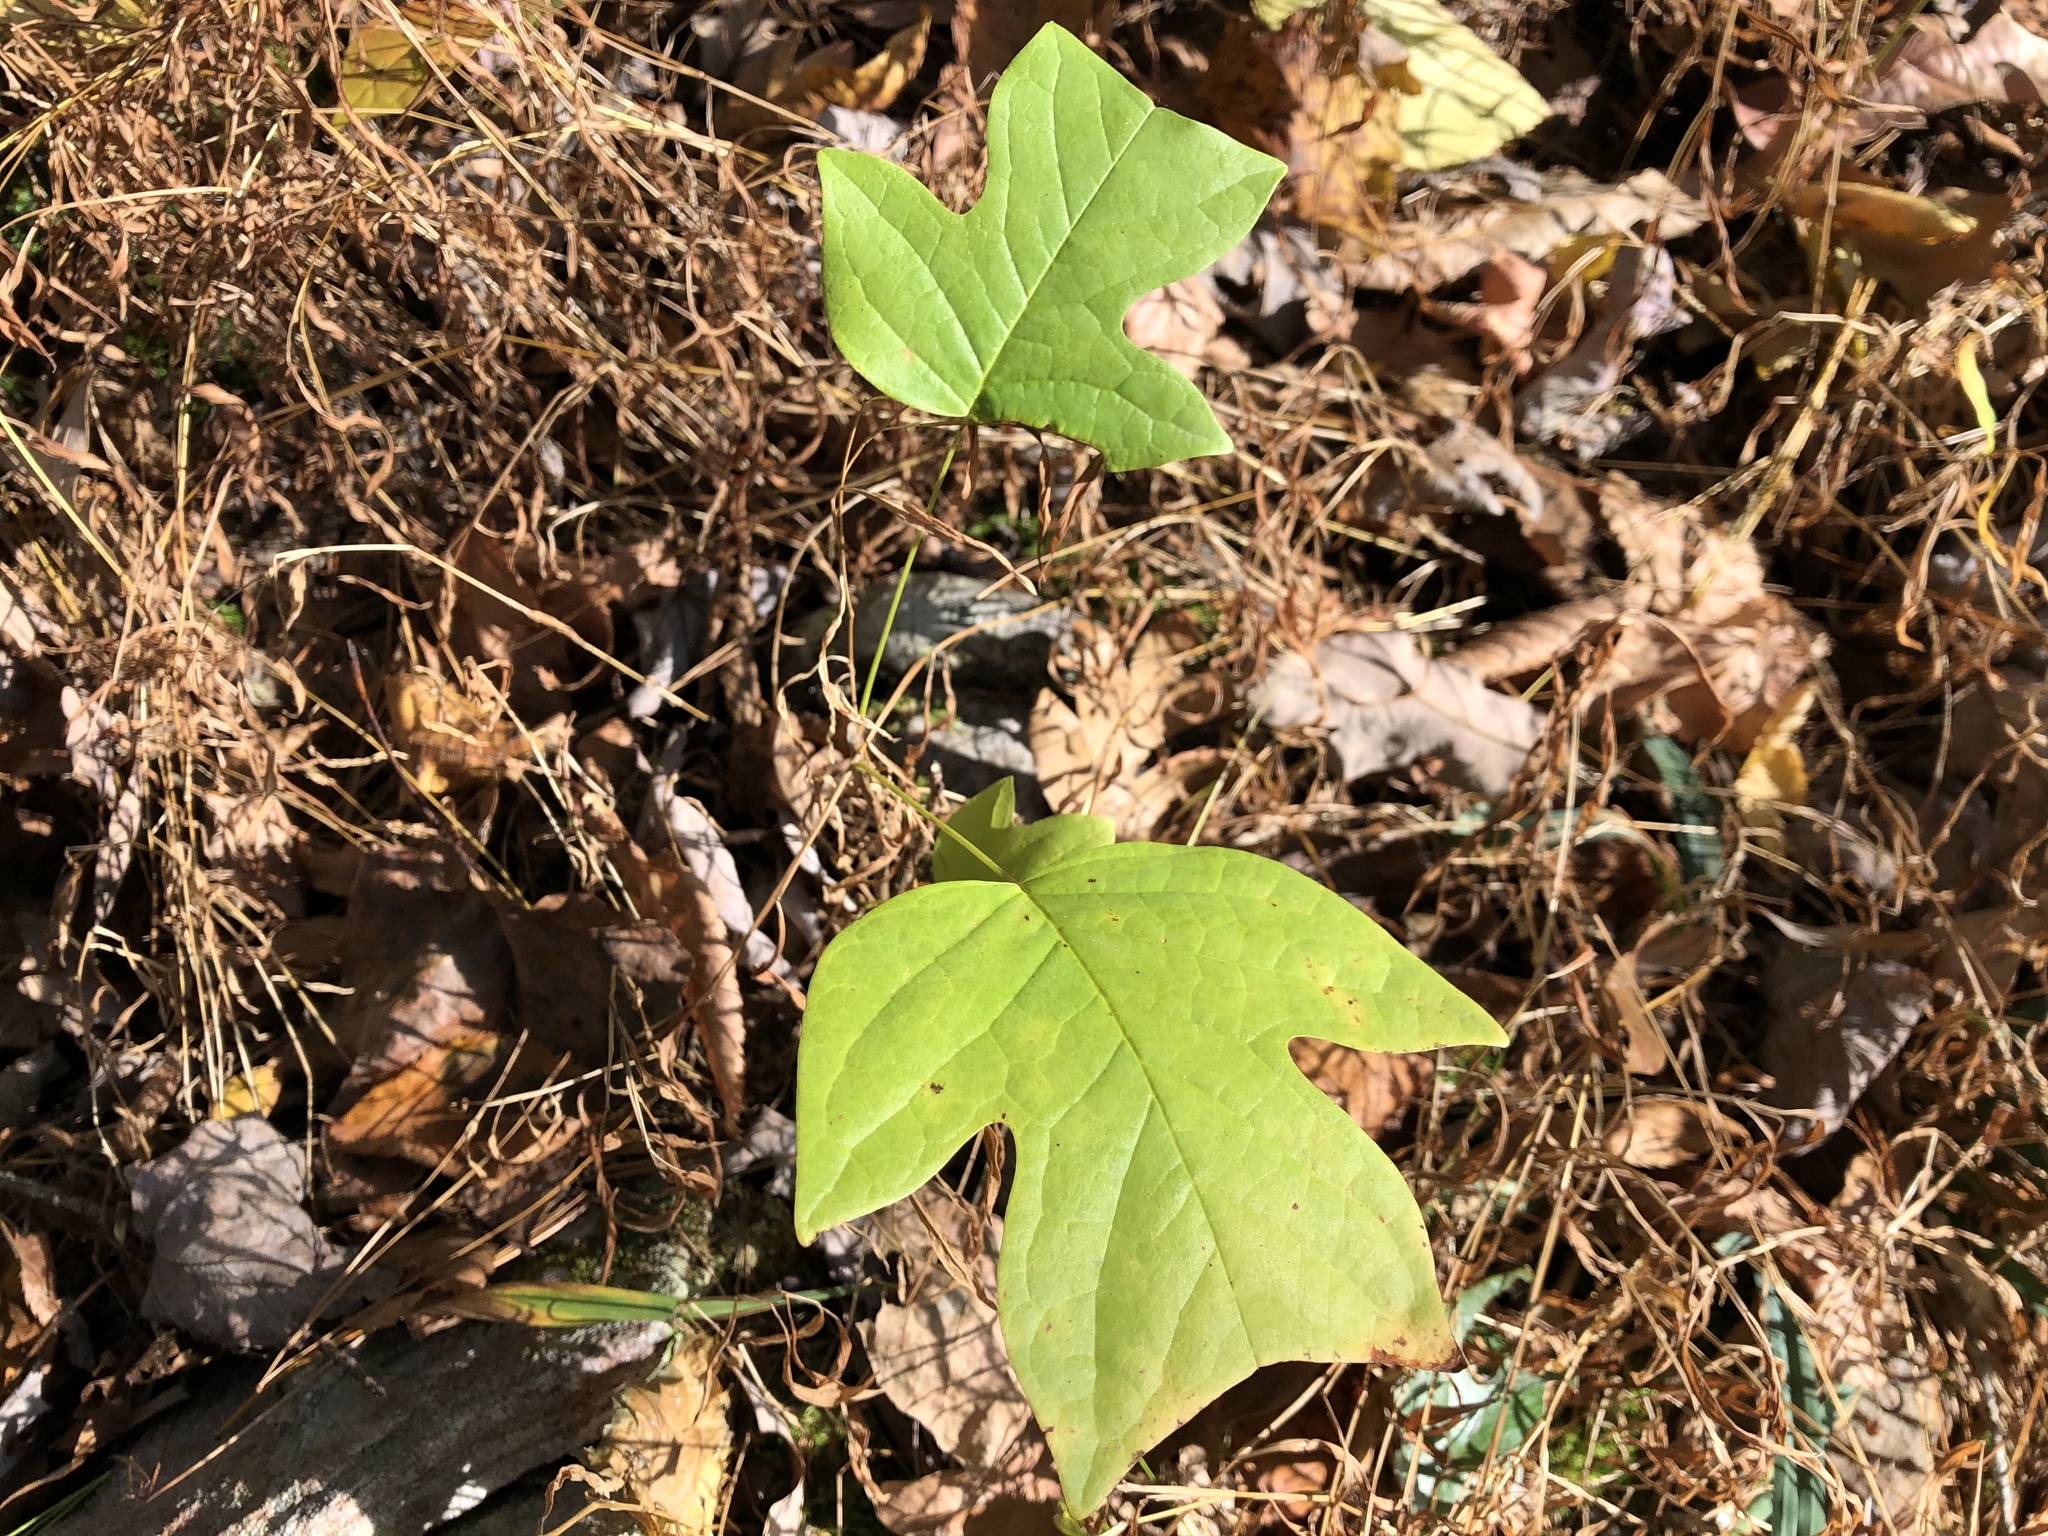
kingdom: Plantae
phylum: Tracheophyta
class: Magnoliopsida
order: Magnoliales
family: Magnoliaceae
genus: Liriodendron
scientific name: Liriodendron tulipifera
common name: Tulip tree
